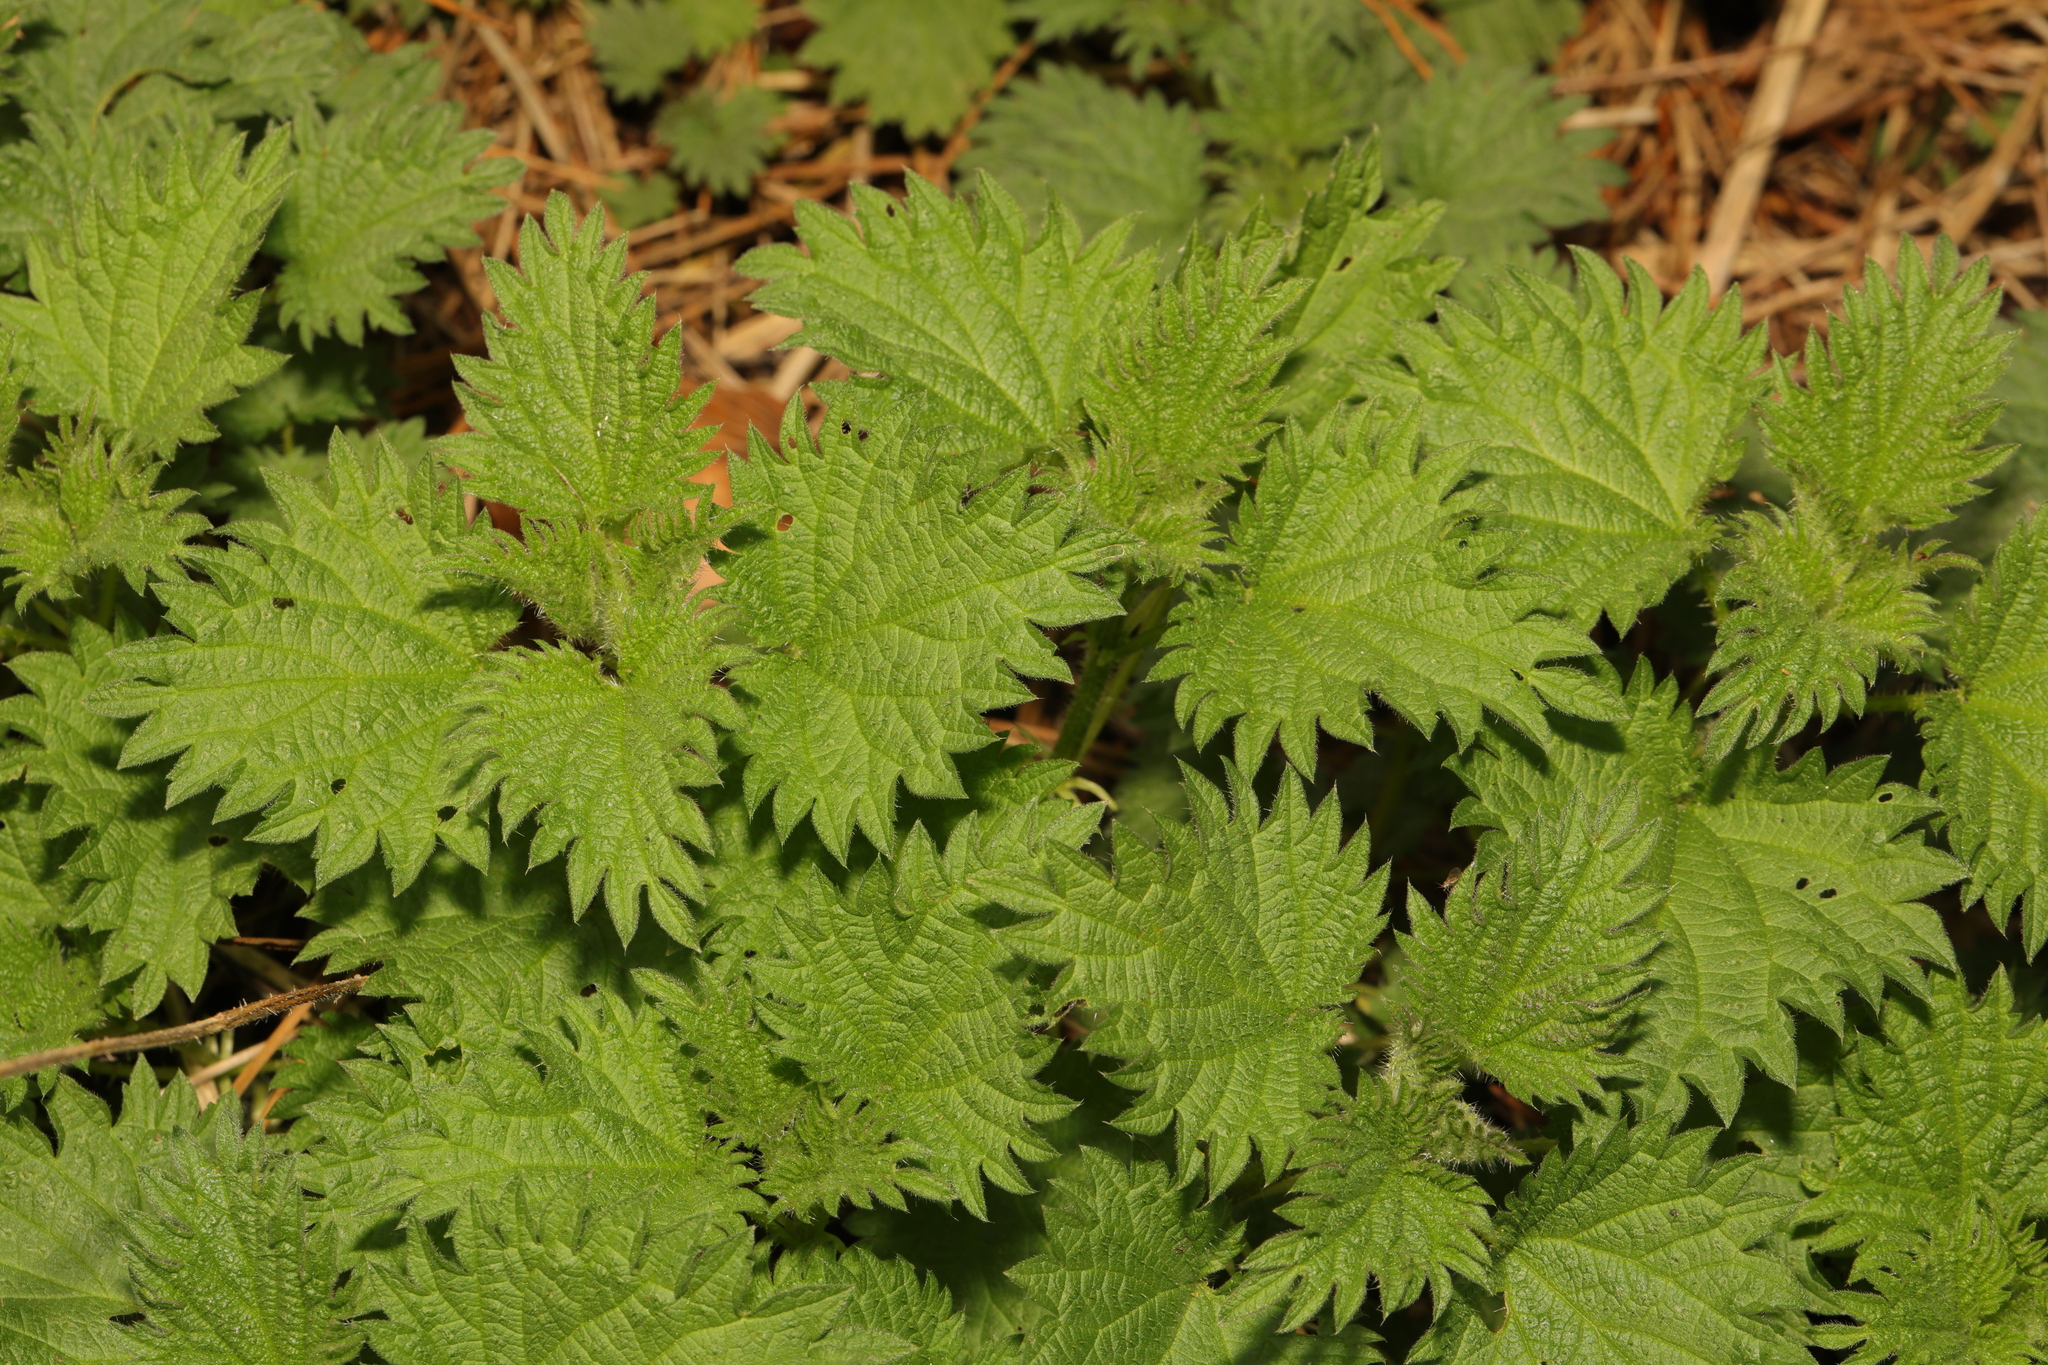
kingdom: Plantae
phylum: Tracheophyta
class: Magnoliopsida
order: Rosales
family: Urticaceae
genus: Urtica
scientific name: Urtica dioica
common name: Common nettle
